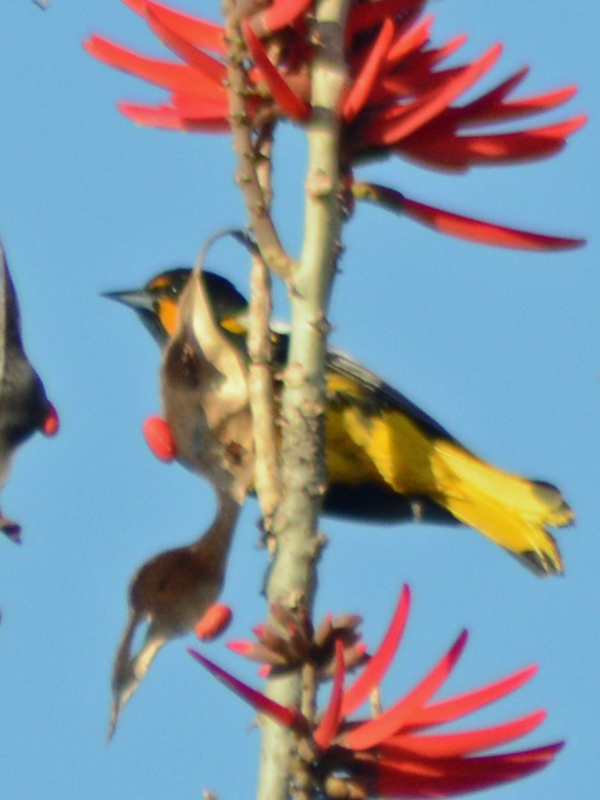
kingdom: Animalia
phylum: Chordata
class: Aves
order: Passeriformes
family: Icteridae
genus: Icterus
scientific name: Icterus abeillei
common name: Black-backed oriole
